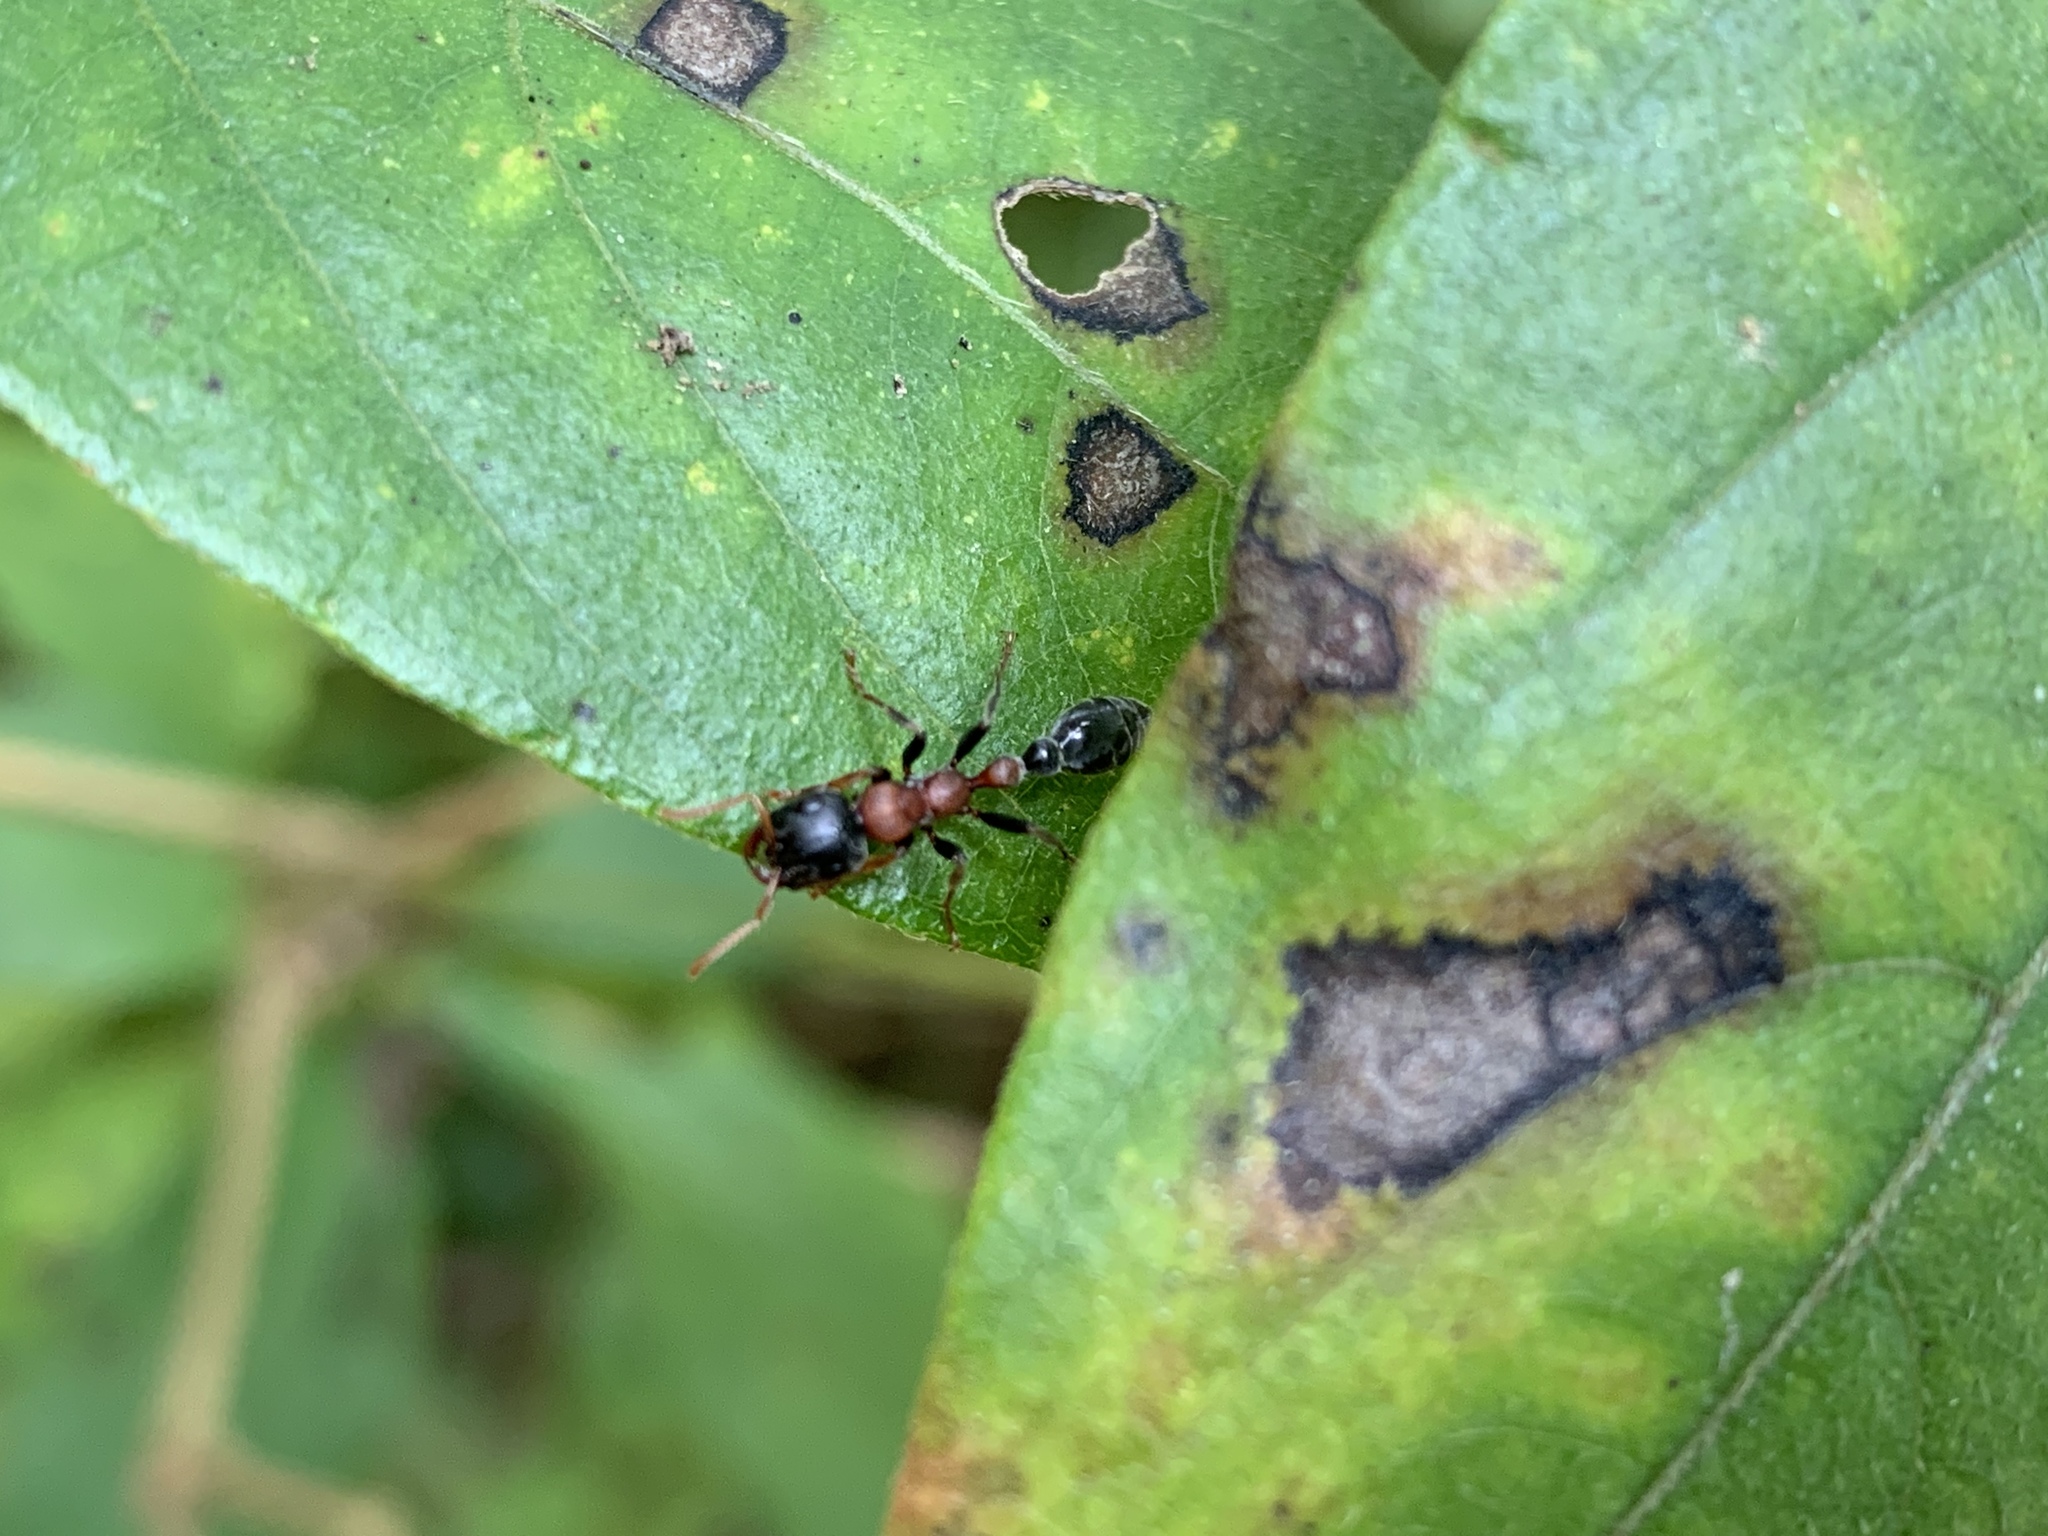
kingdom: Animalia
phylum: Arthropoda
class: Insecta
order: Hymenoptera
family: Formicidae
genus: Tetraponera
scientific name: Tetraponera rufonigra
